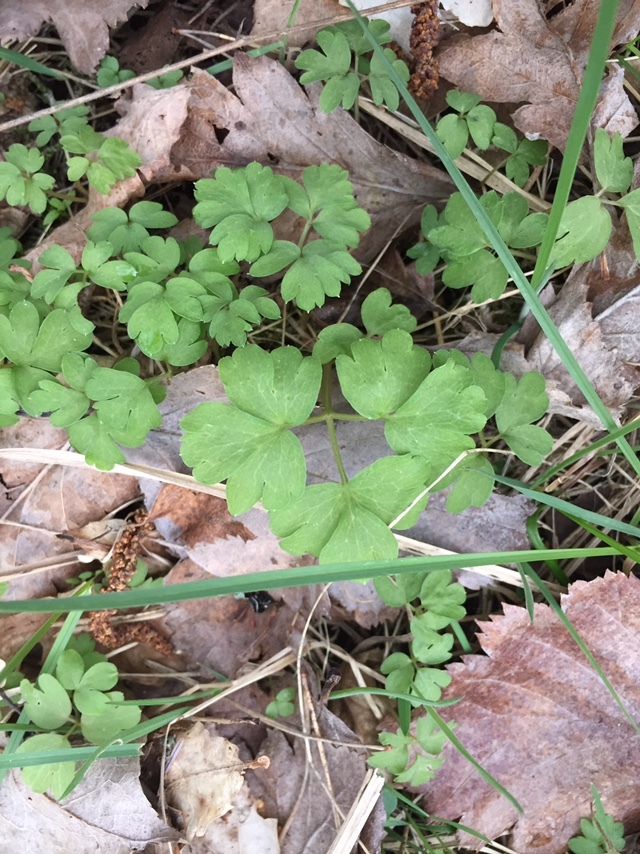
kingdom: Plantae
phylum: Tracheophyta
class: Magnoliopsida
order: Dipsacales
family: Viburnaceae
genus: Adoxa
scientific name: Adoxa moschatellina
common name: Moschatel
